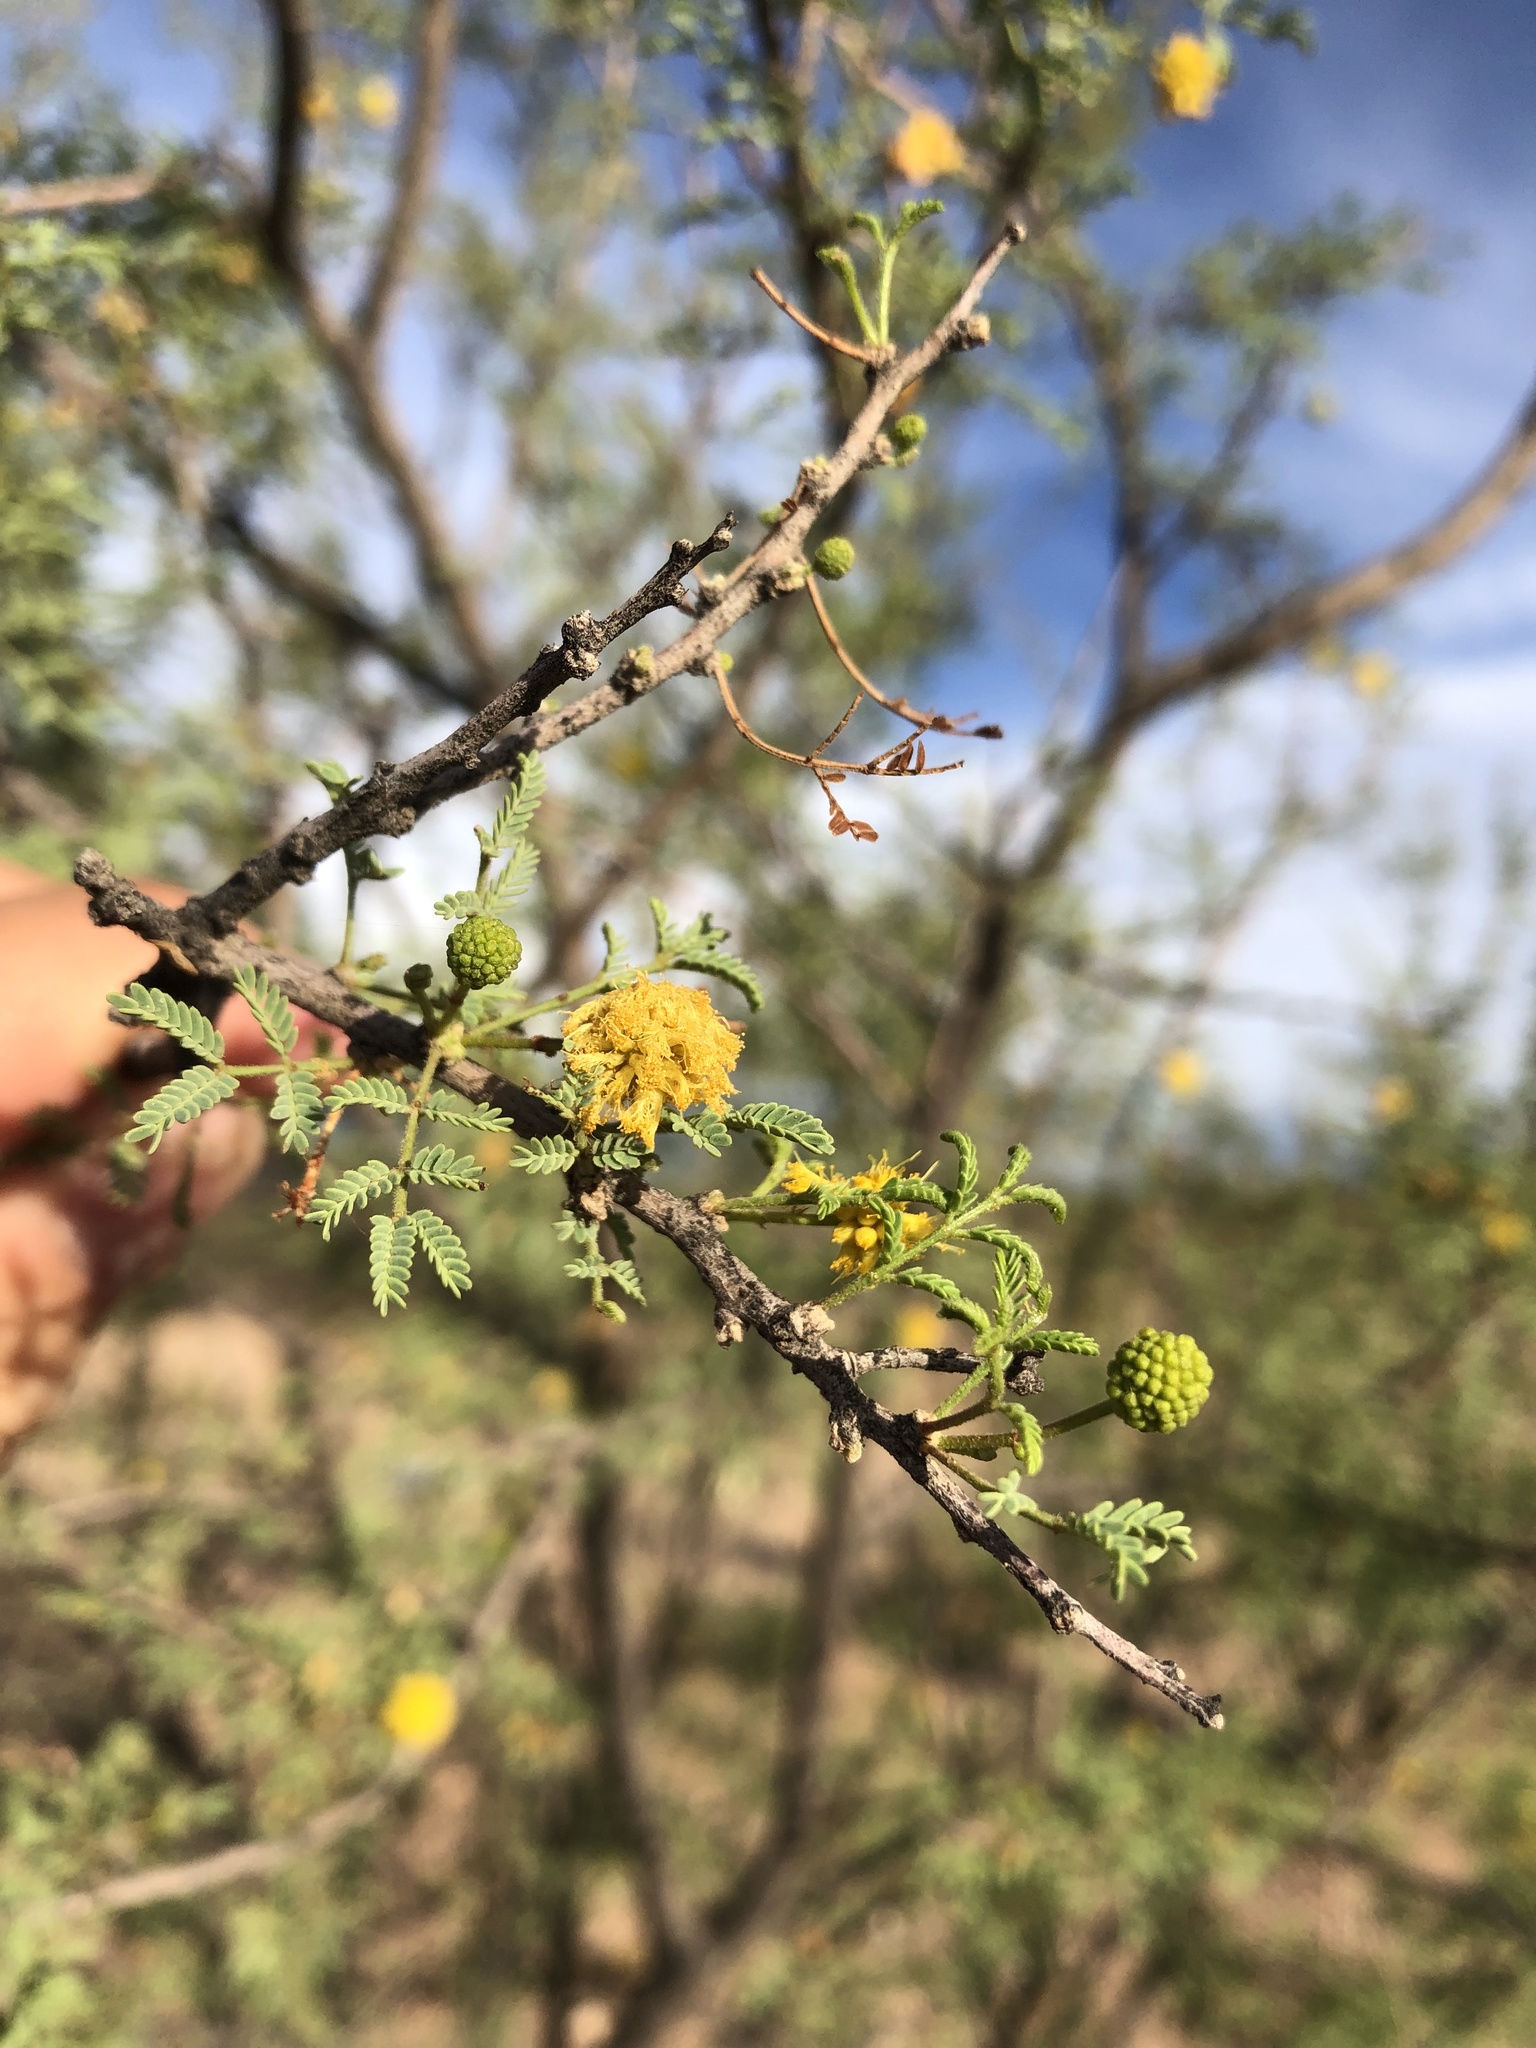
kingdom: Plantae
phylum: Tracheophyta
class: Magnoliopsida
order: Fabales
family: Fabaceae
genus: Vachellia
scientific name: Vachellia farnesiana
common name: Sweet acacia
